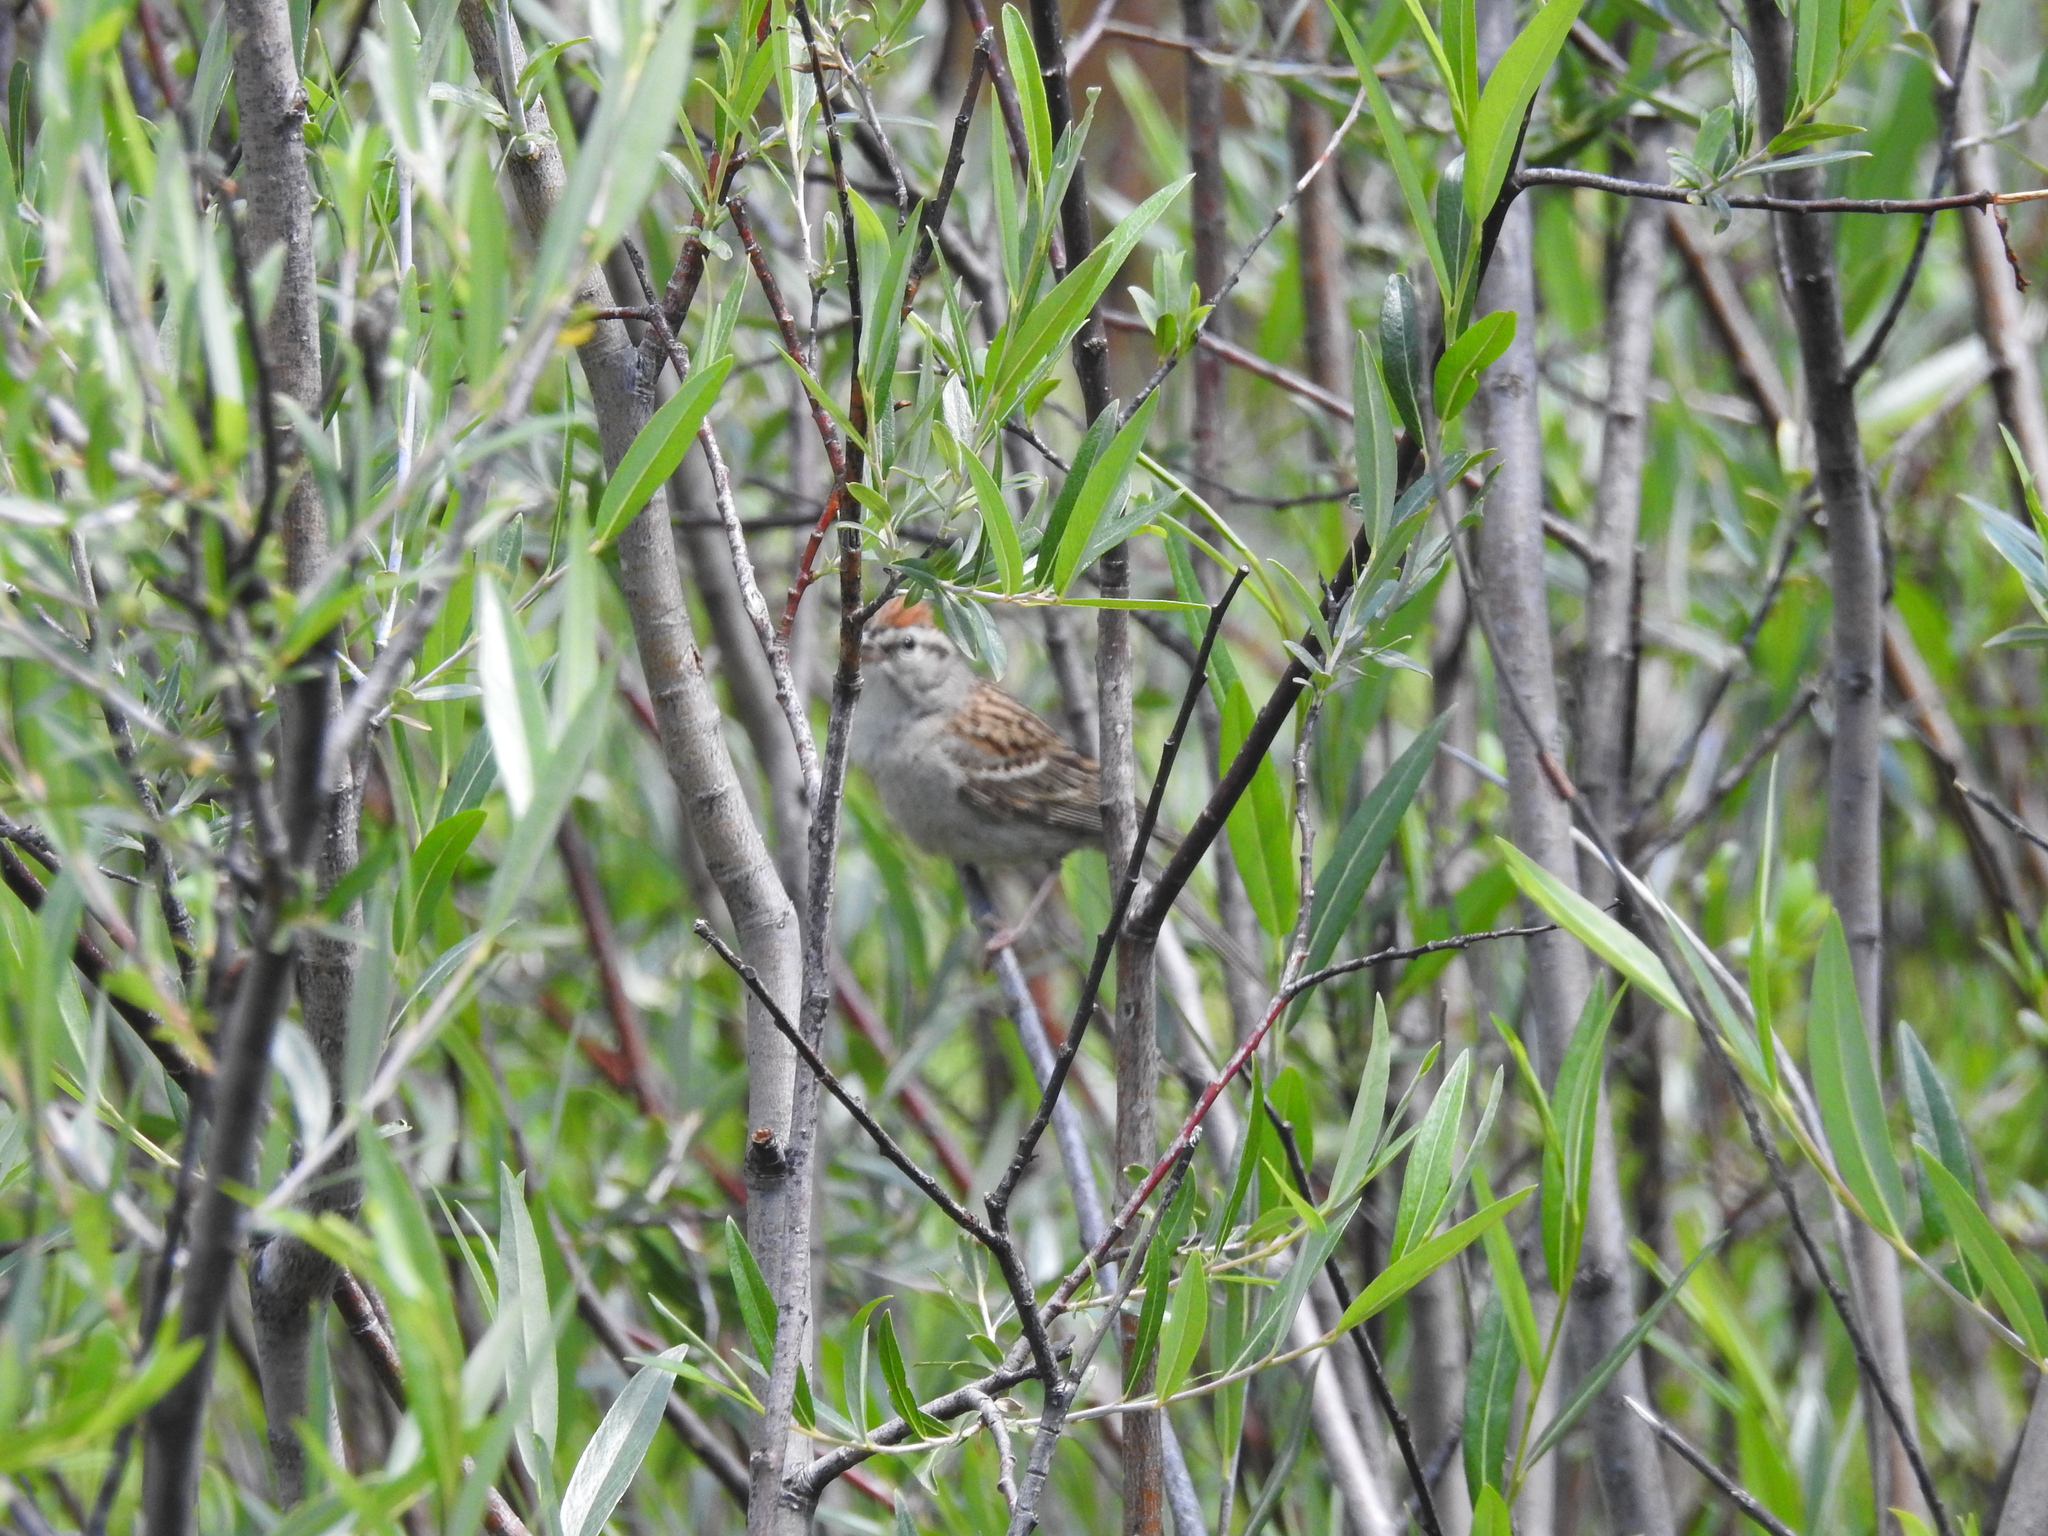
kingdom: Animalia
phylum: Chordata
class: Aves
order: Passeriformes
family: Passerellidae
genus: Spizella
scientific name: Spizella passerina
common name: Chipping sparrow
